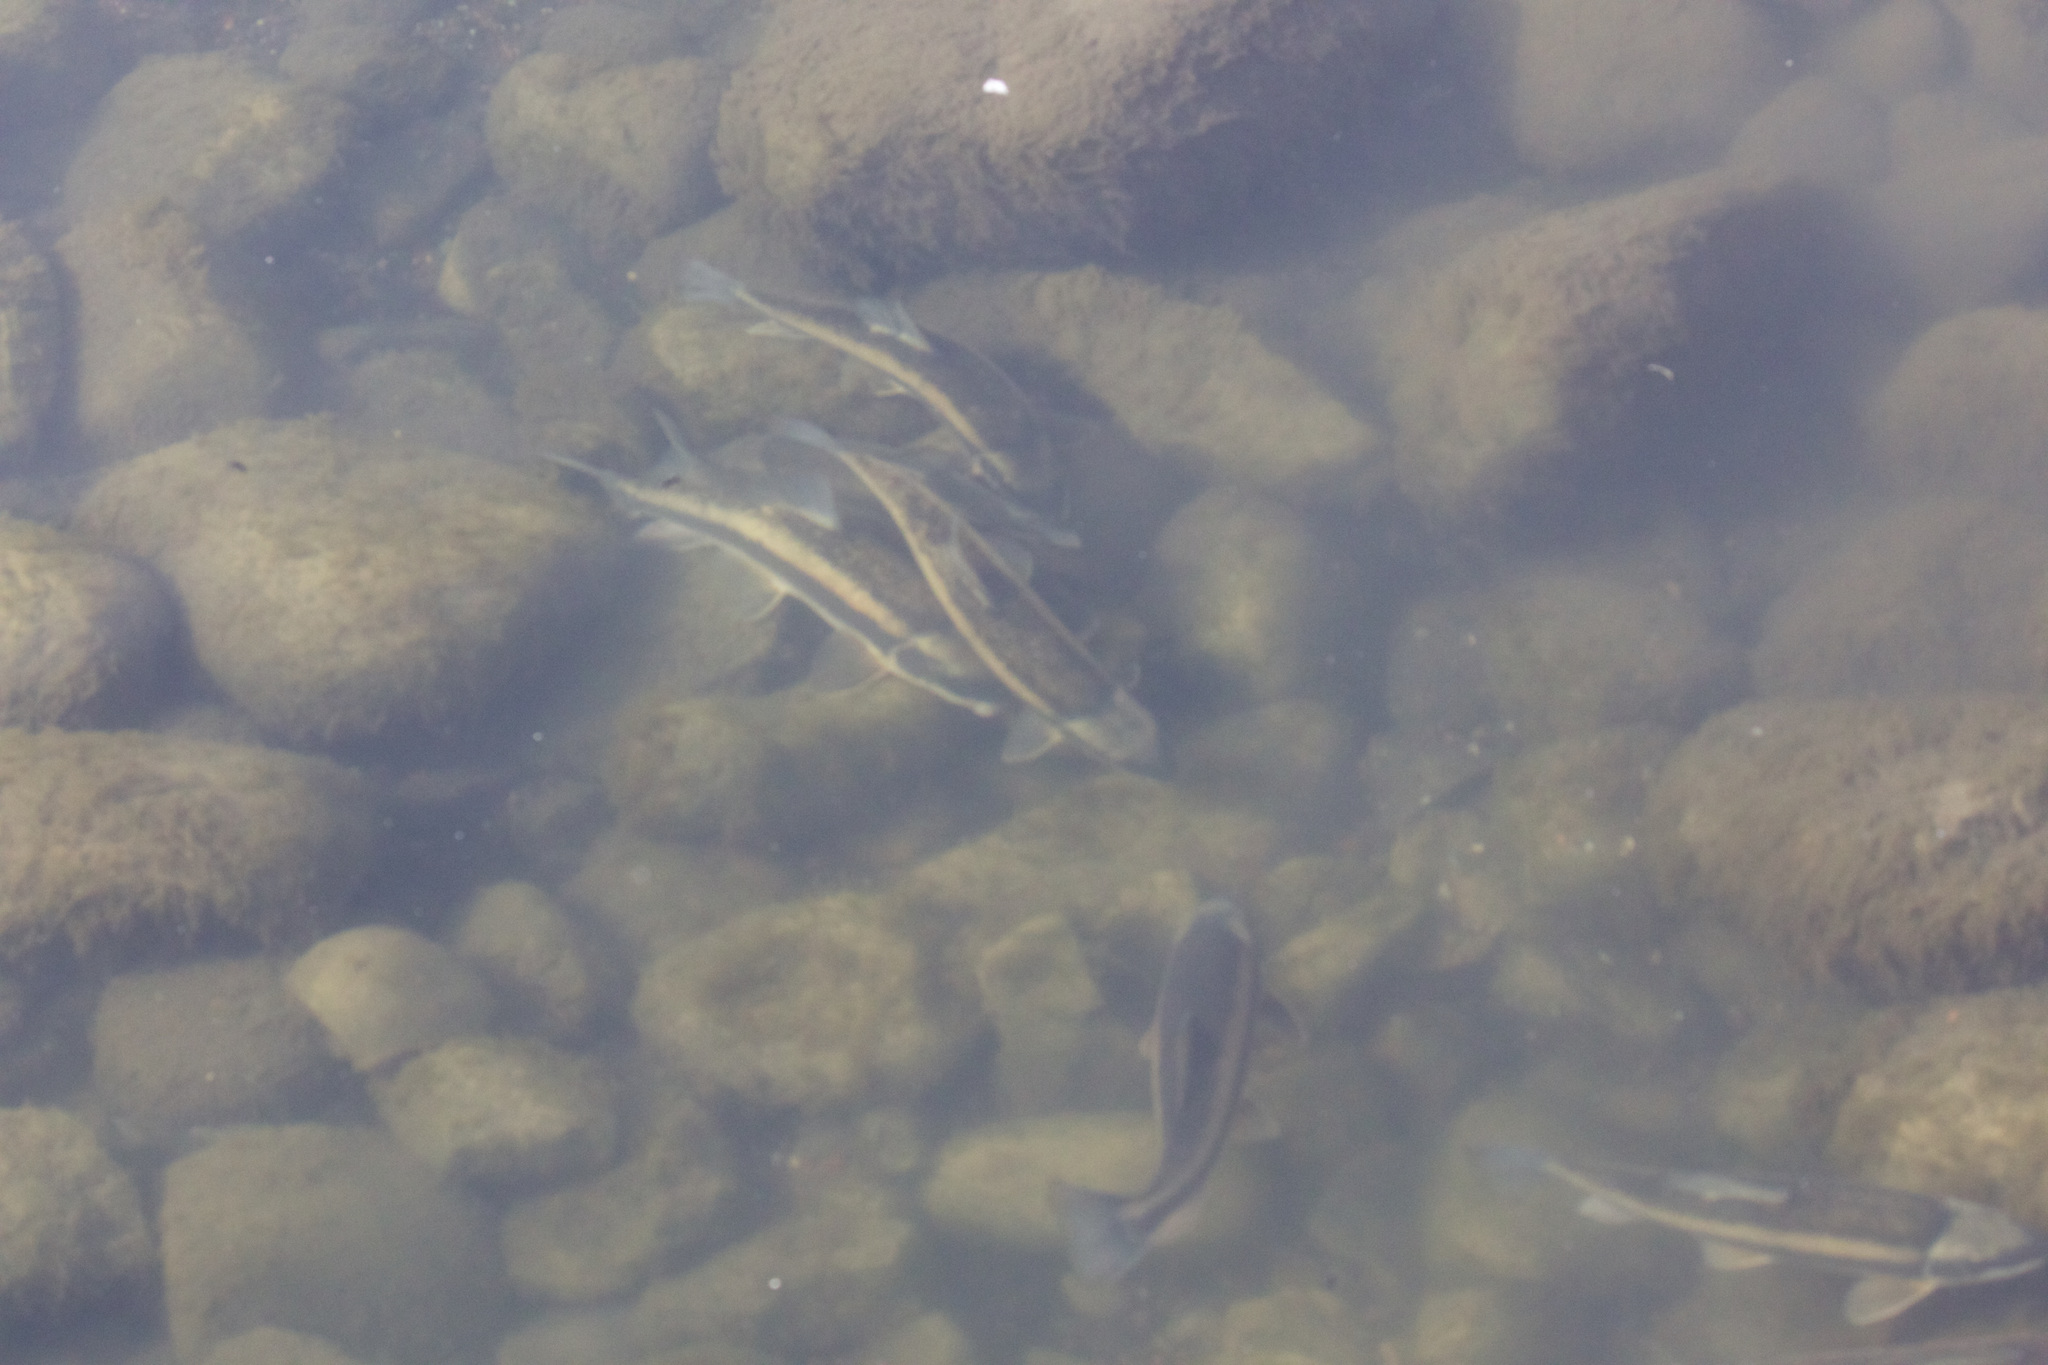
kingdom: Animalia
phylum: Chordata
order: Cypriniformes
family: Catostomidae
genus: Catostomus
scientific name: Catostomus commersonii
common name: White sucker
